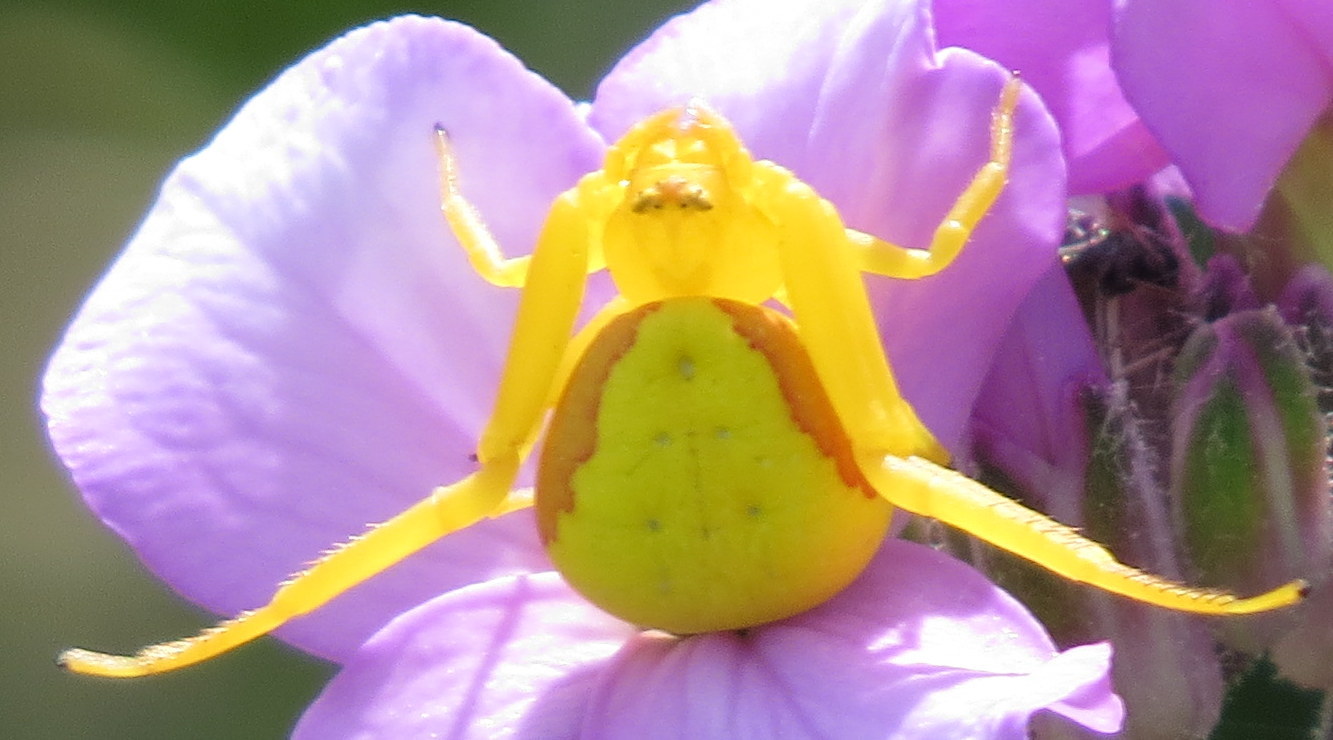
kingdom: Animalia
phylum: Arthropoda
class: Arachnida
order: Araneae
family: Thomisidae
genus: Misumena
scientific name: Misumena vatia
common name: Goldenrod crab spider
